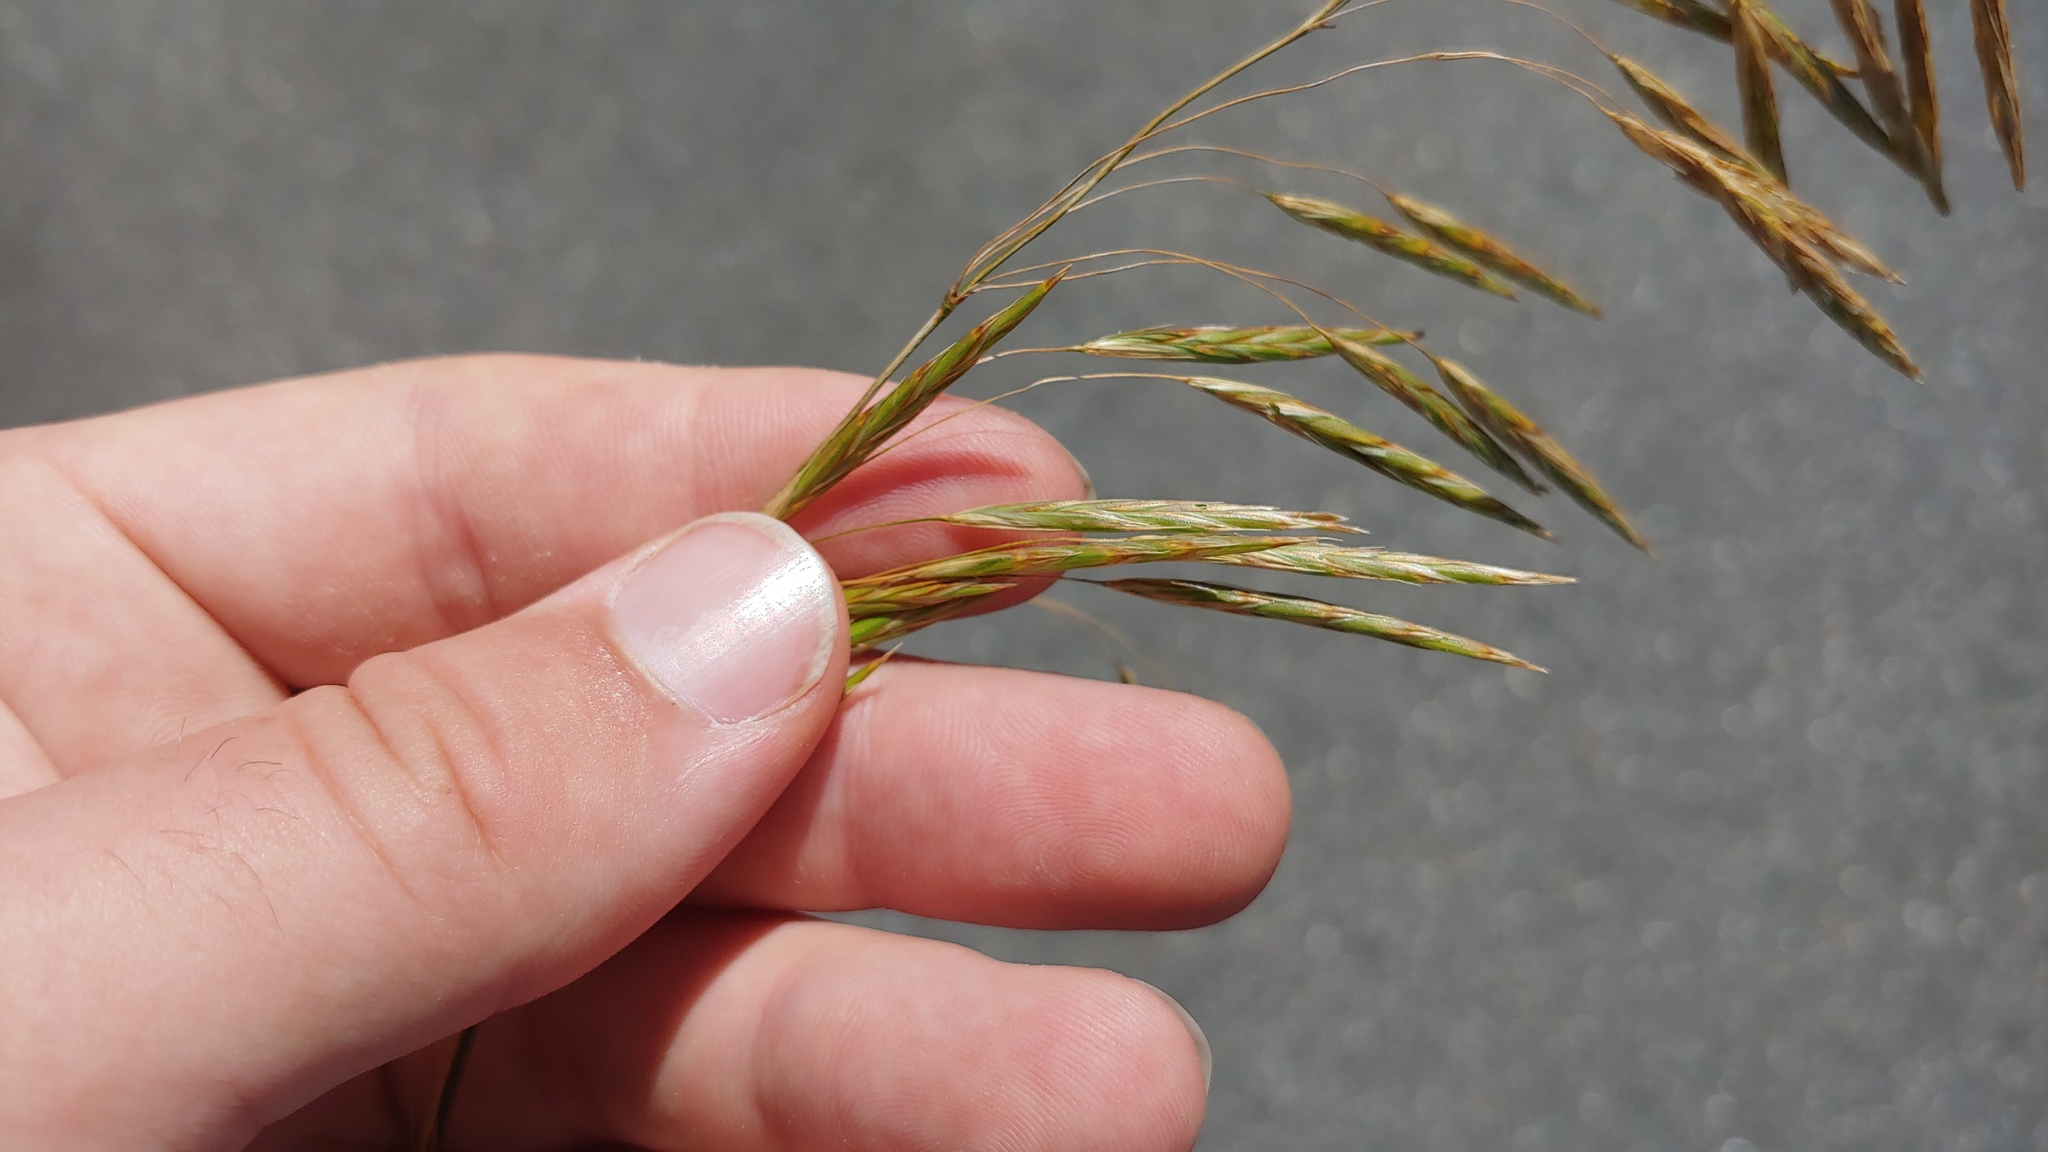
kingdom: Plantae
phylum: Tracheophyta
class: Liliopsida
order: Poales
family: Poaceae
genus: Bromus
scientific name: Bromus inermis
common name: Smooth brome
